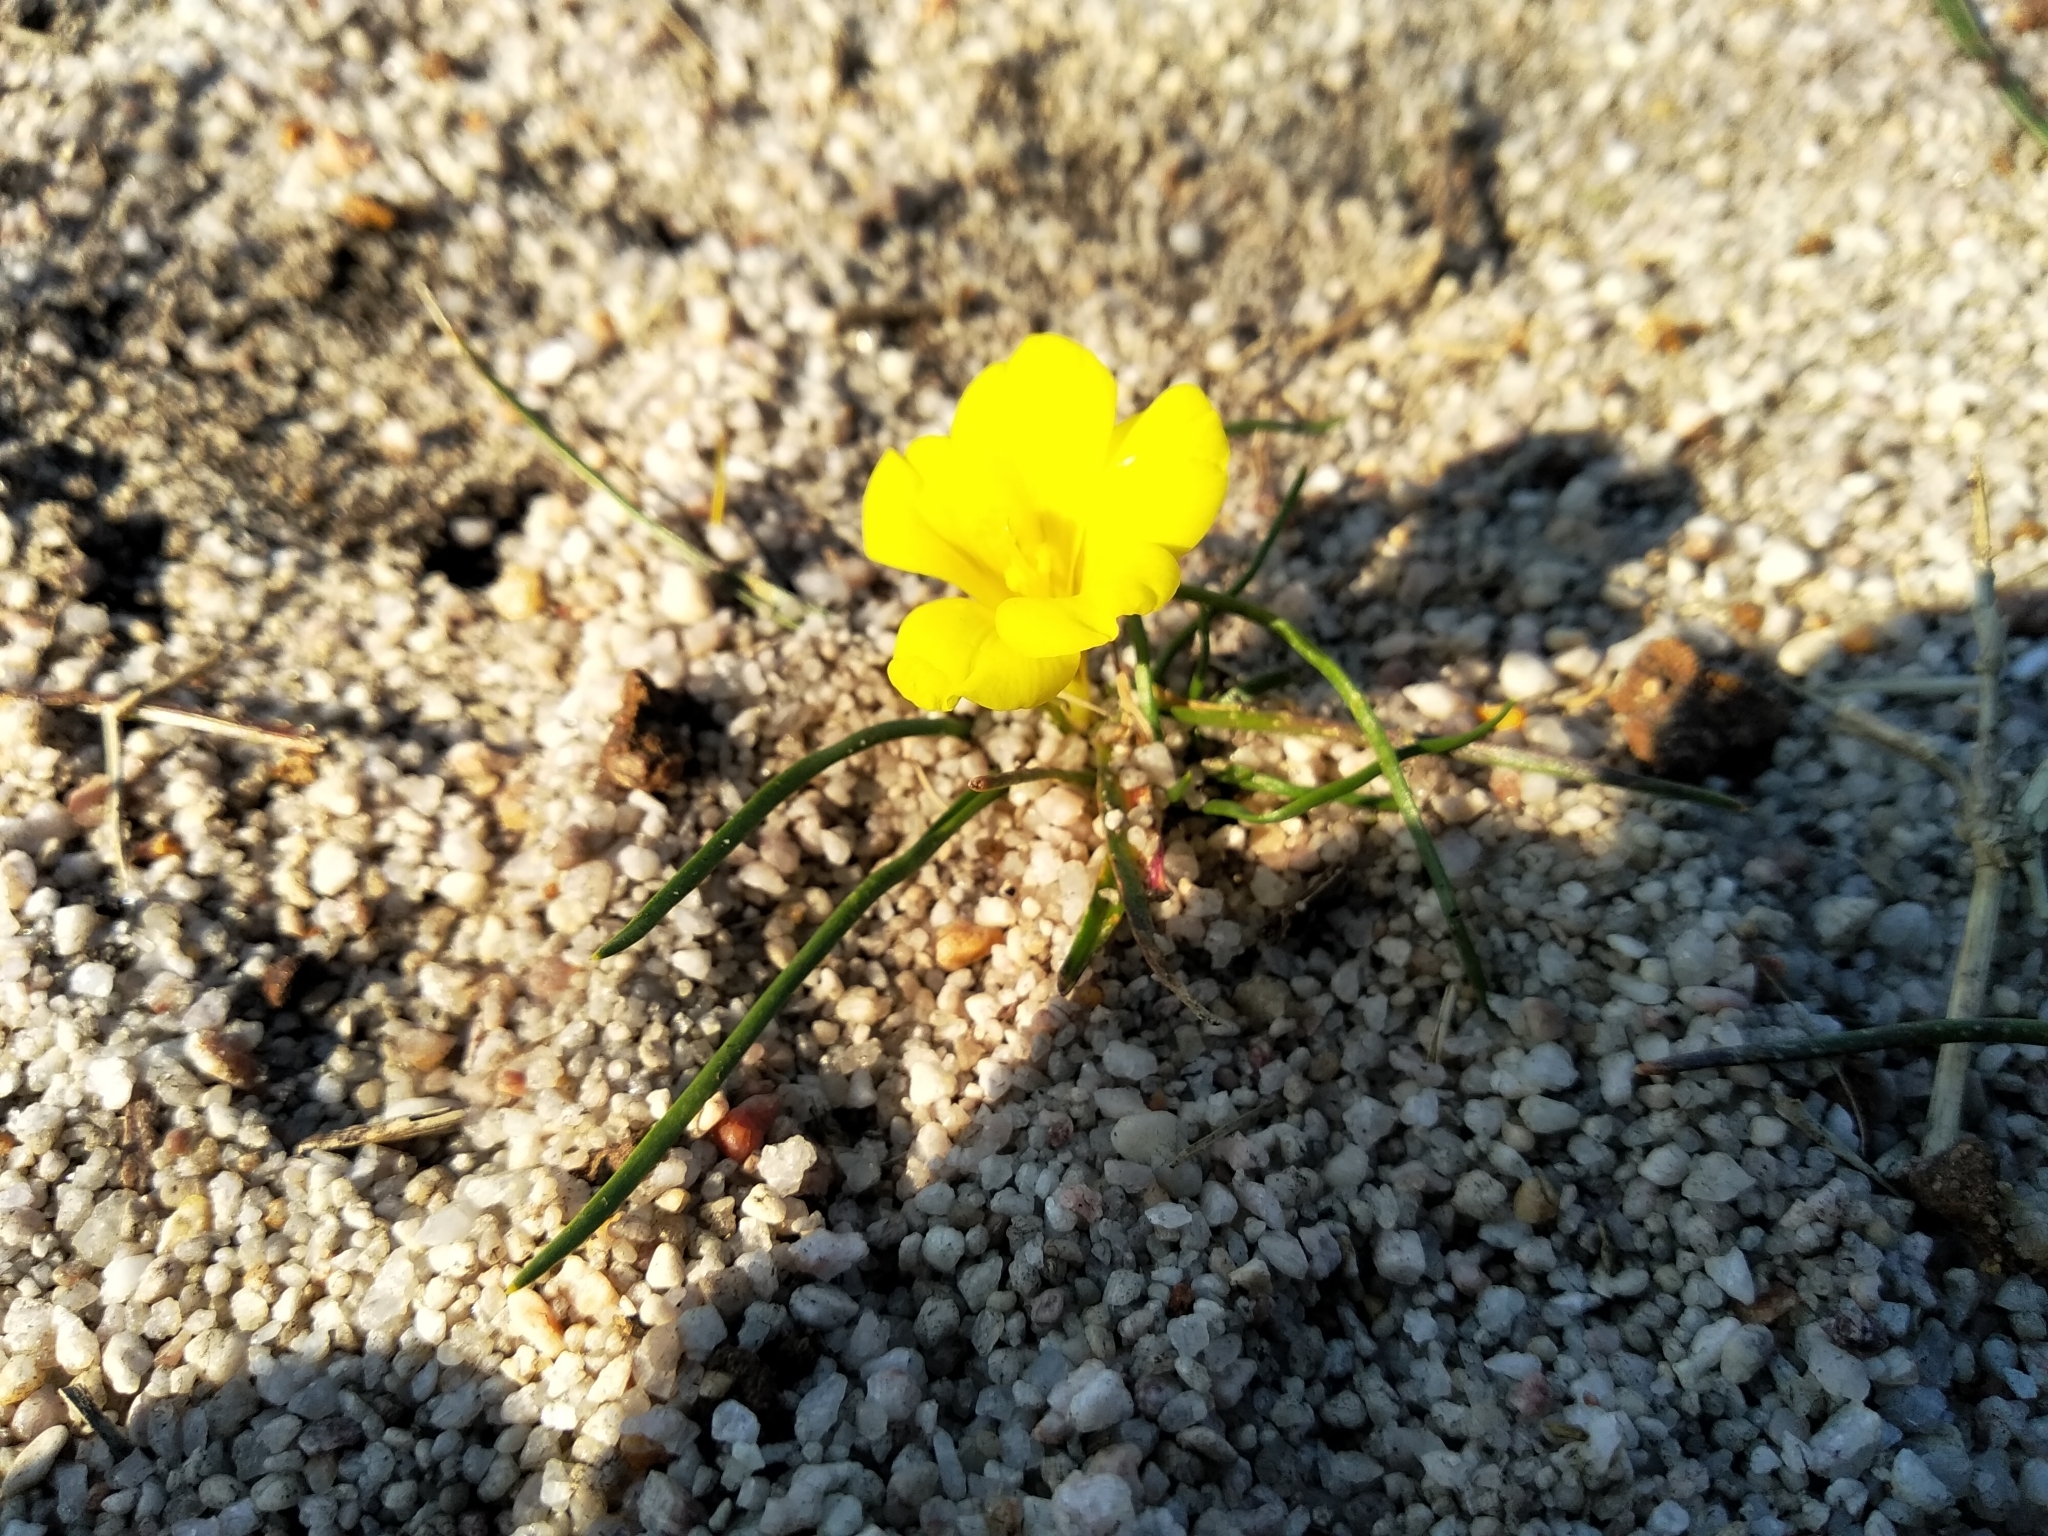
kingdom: Plantae
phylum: Tracheophyta
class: Liliopsida
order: Asparagales
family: Iridaceae
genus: Moraea
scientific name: Moraea fugacissima
